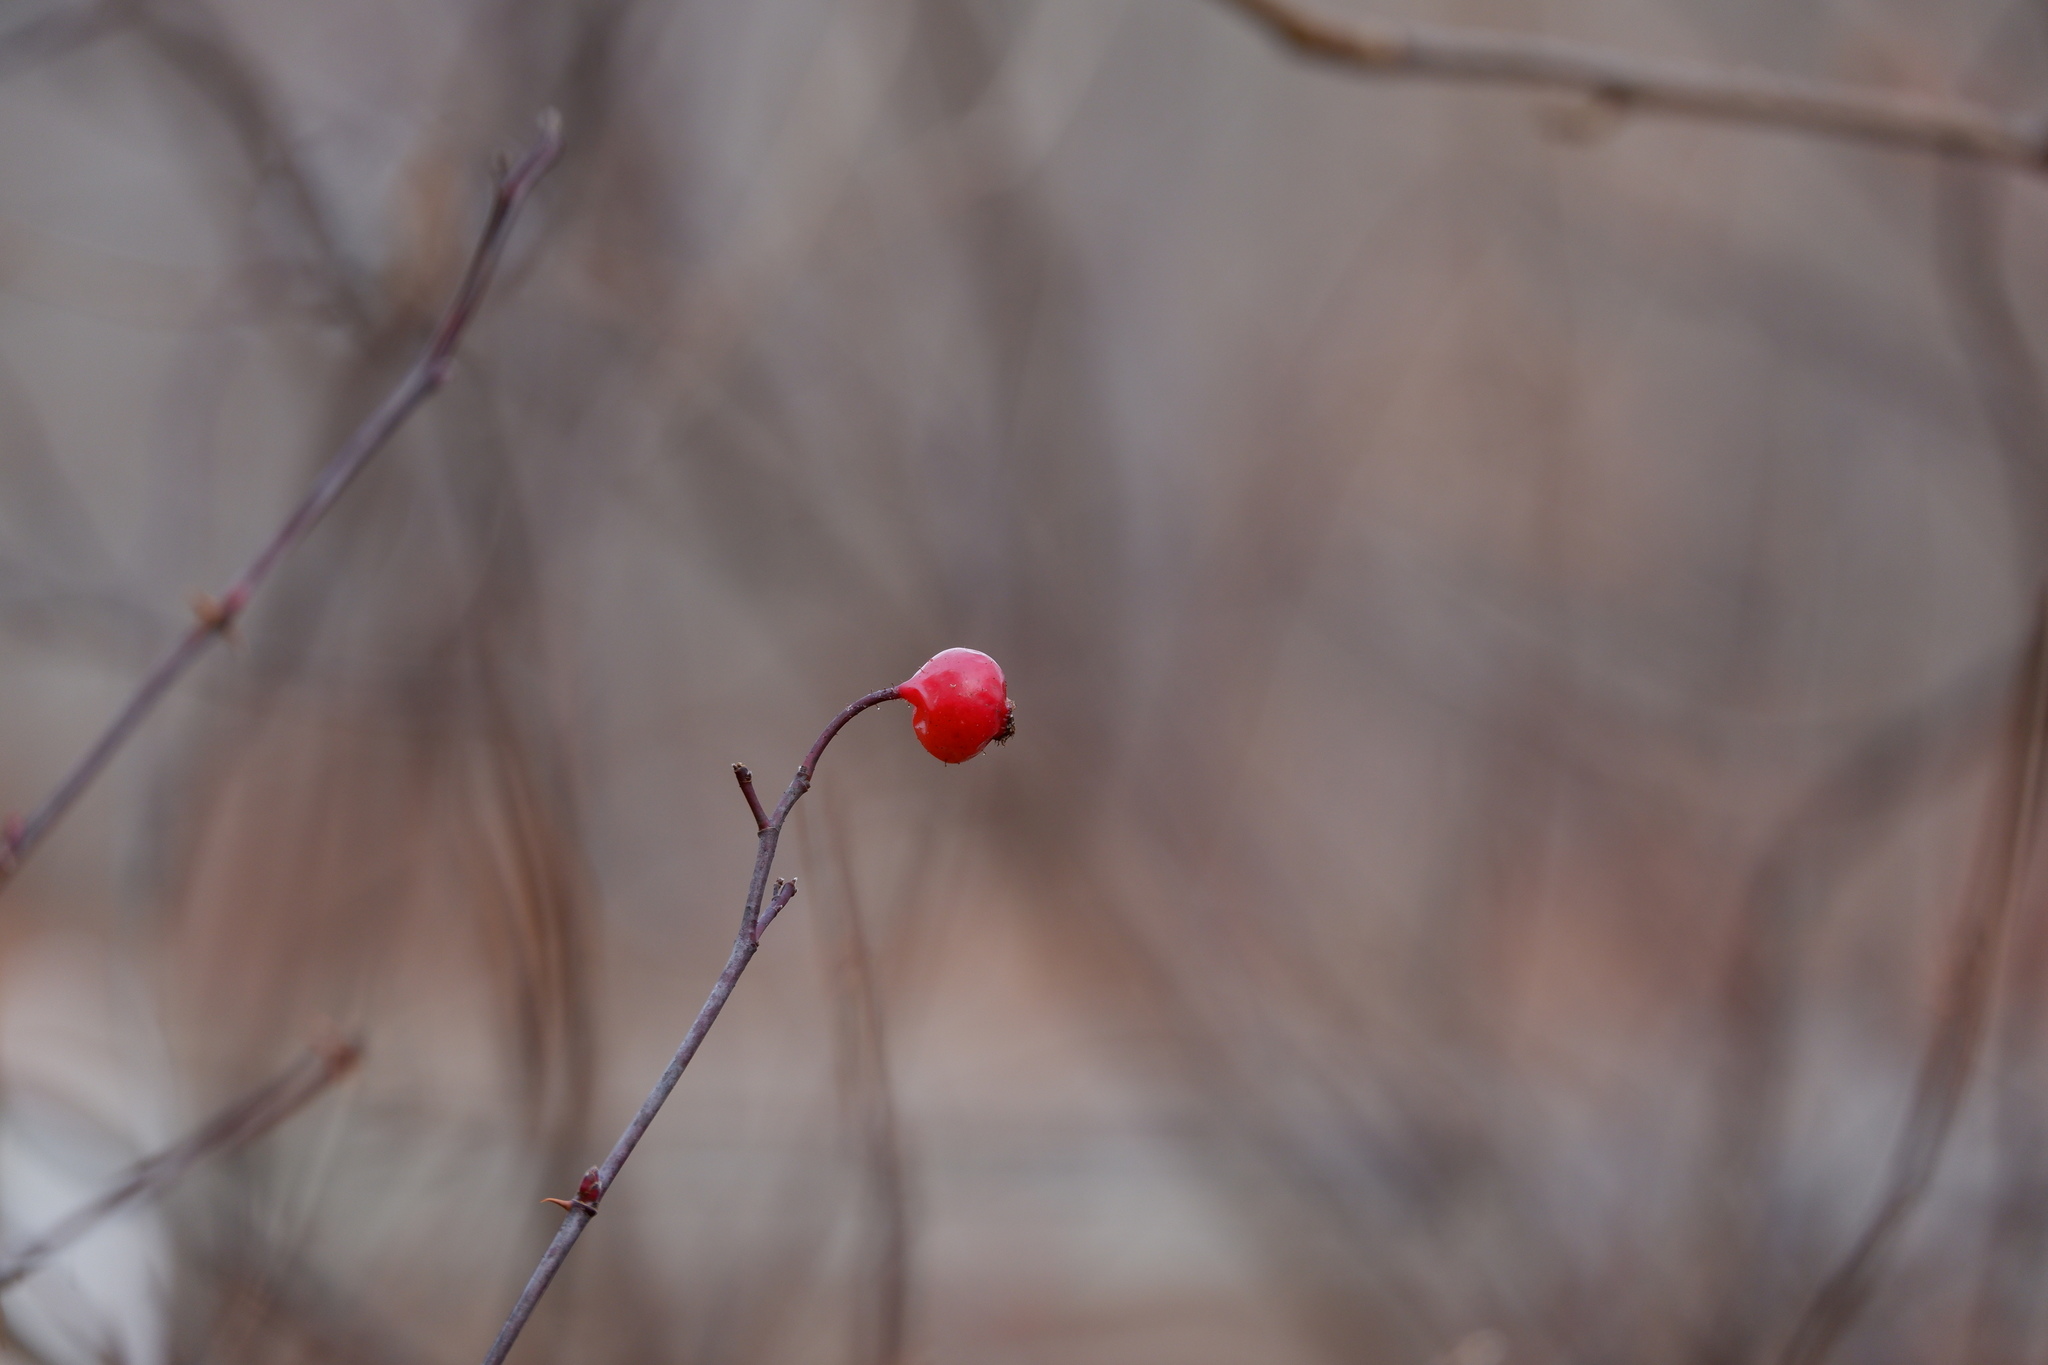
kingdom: Plantae
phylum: Tracheophyta
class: Magnoliopsida
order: Rosales
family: Rosaceae
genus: Rosa
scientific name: Rosa palustris
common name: Swamp rose
